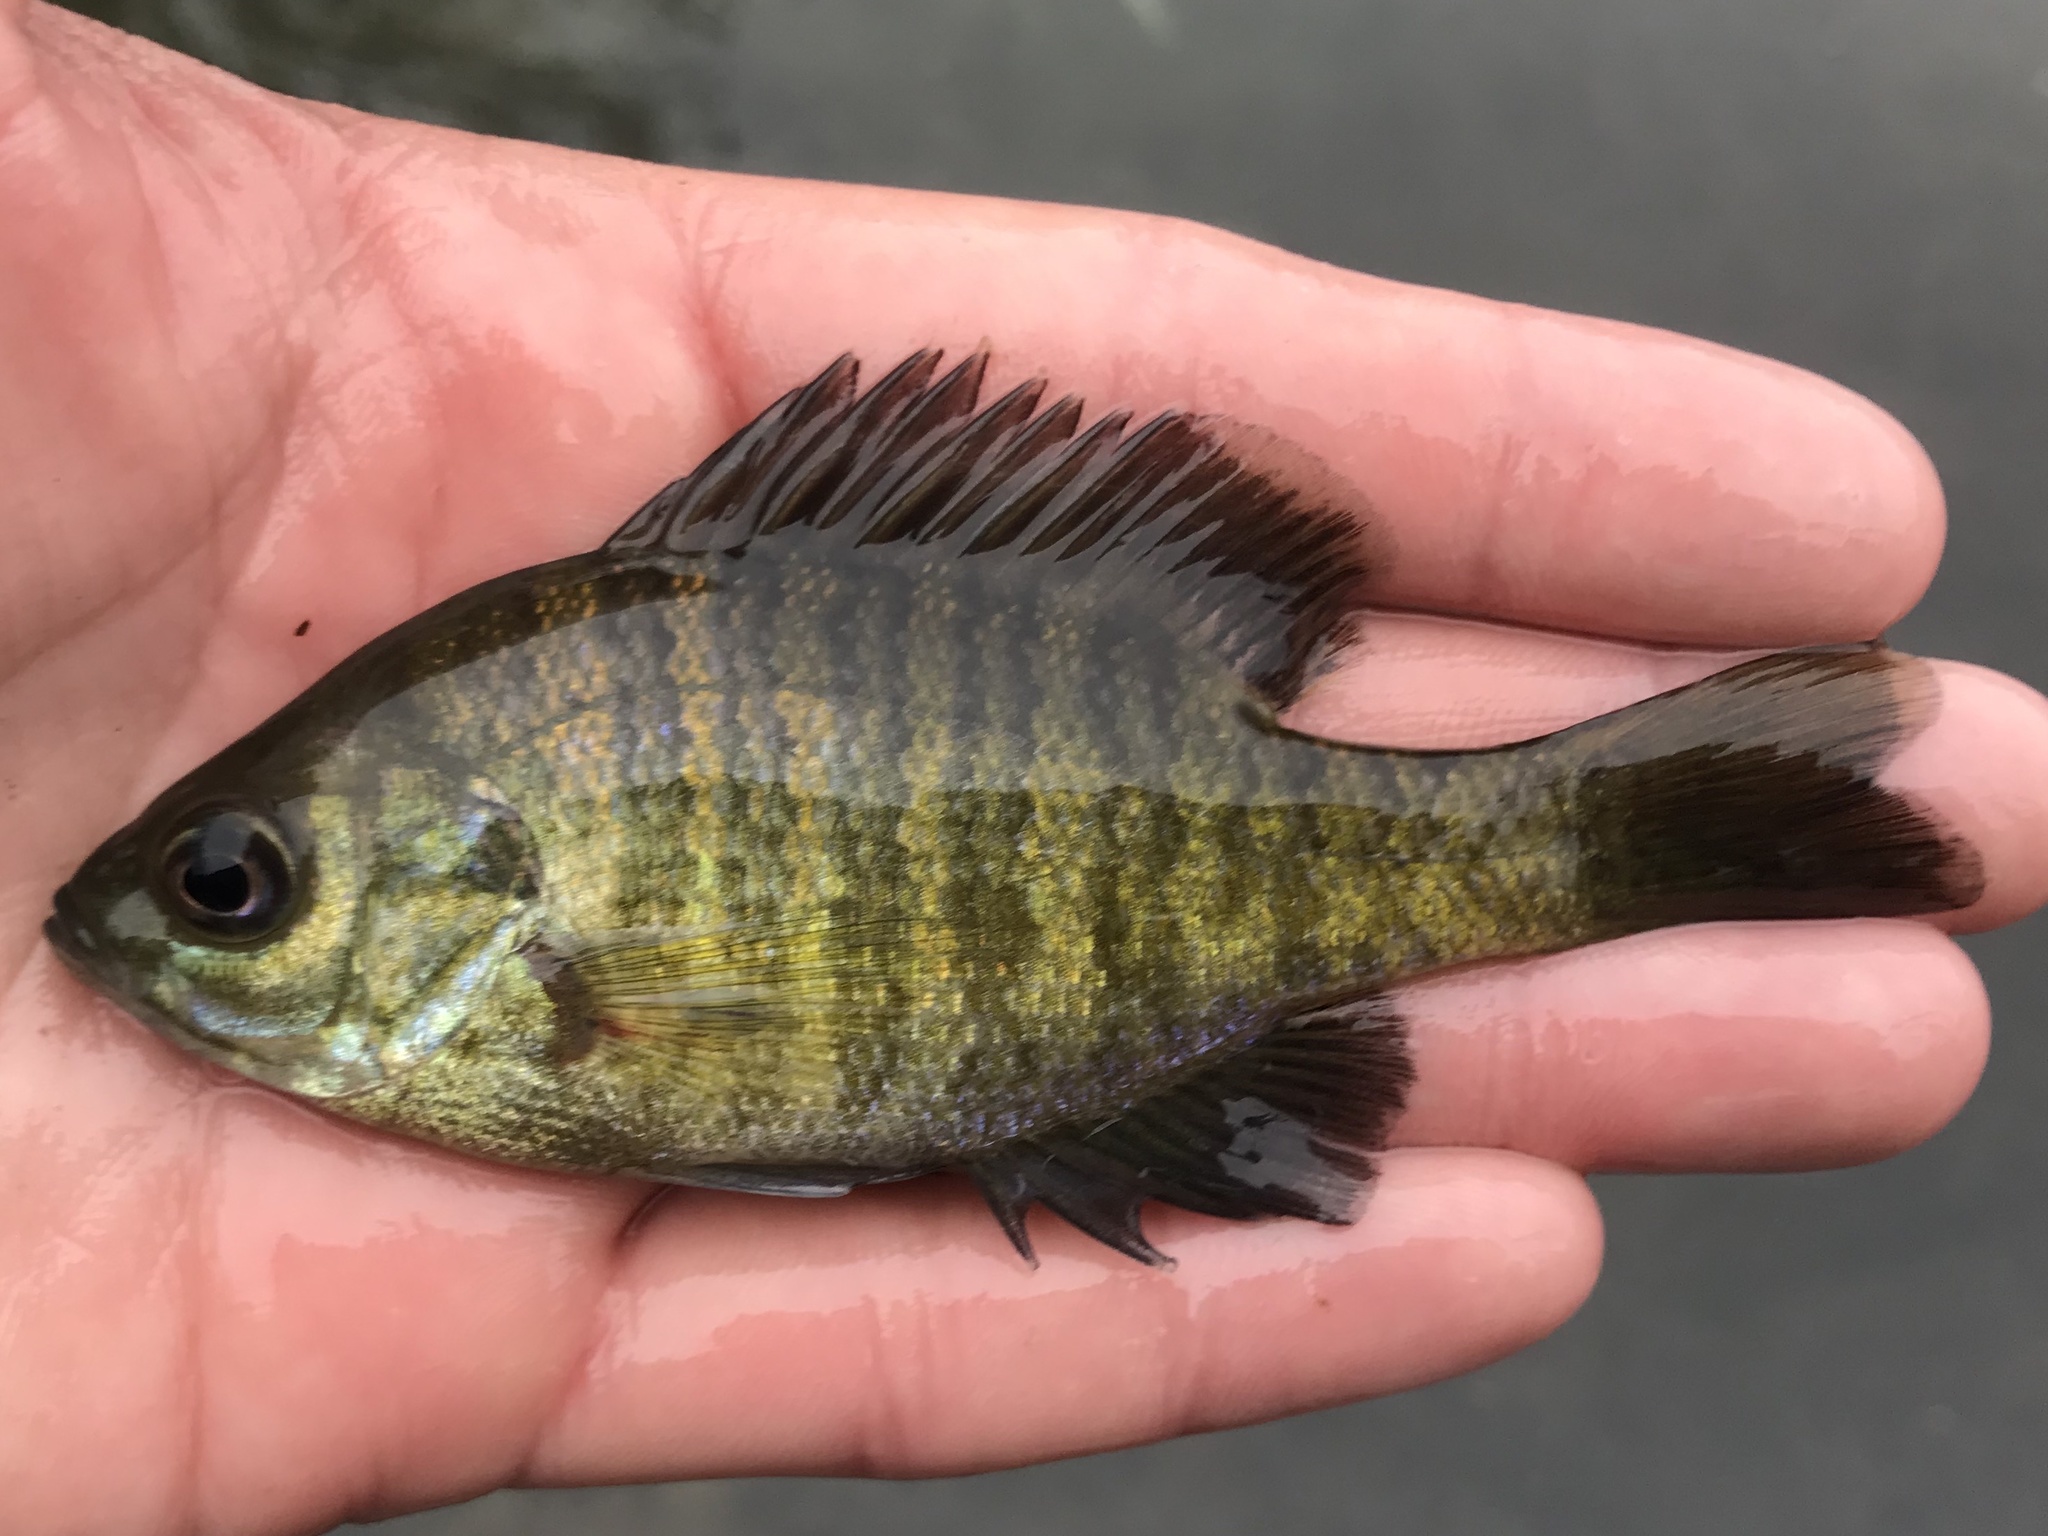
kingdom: Animalia
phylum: Chordata
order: Perciformes
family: Centrarchidae
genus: Lepomis
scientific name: Lepomis macrochirus
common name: Bluegill
